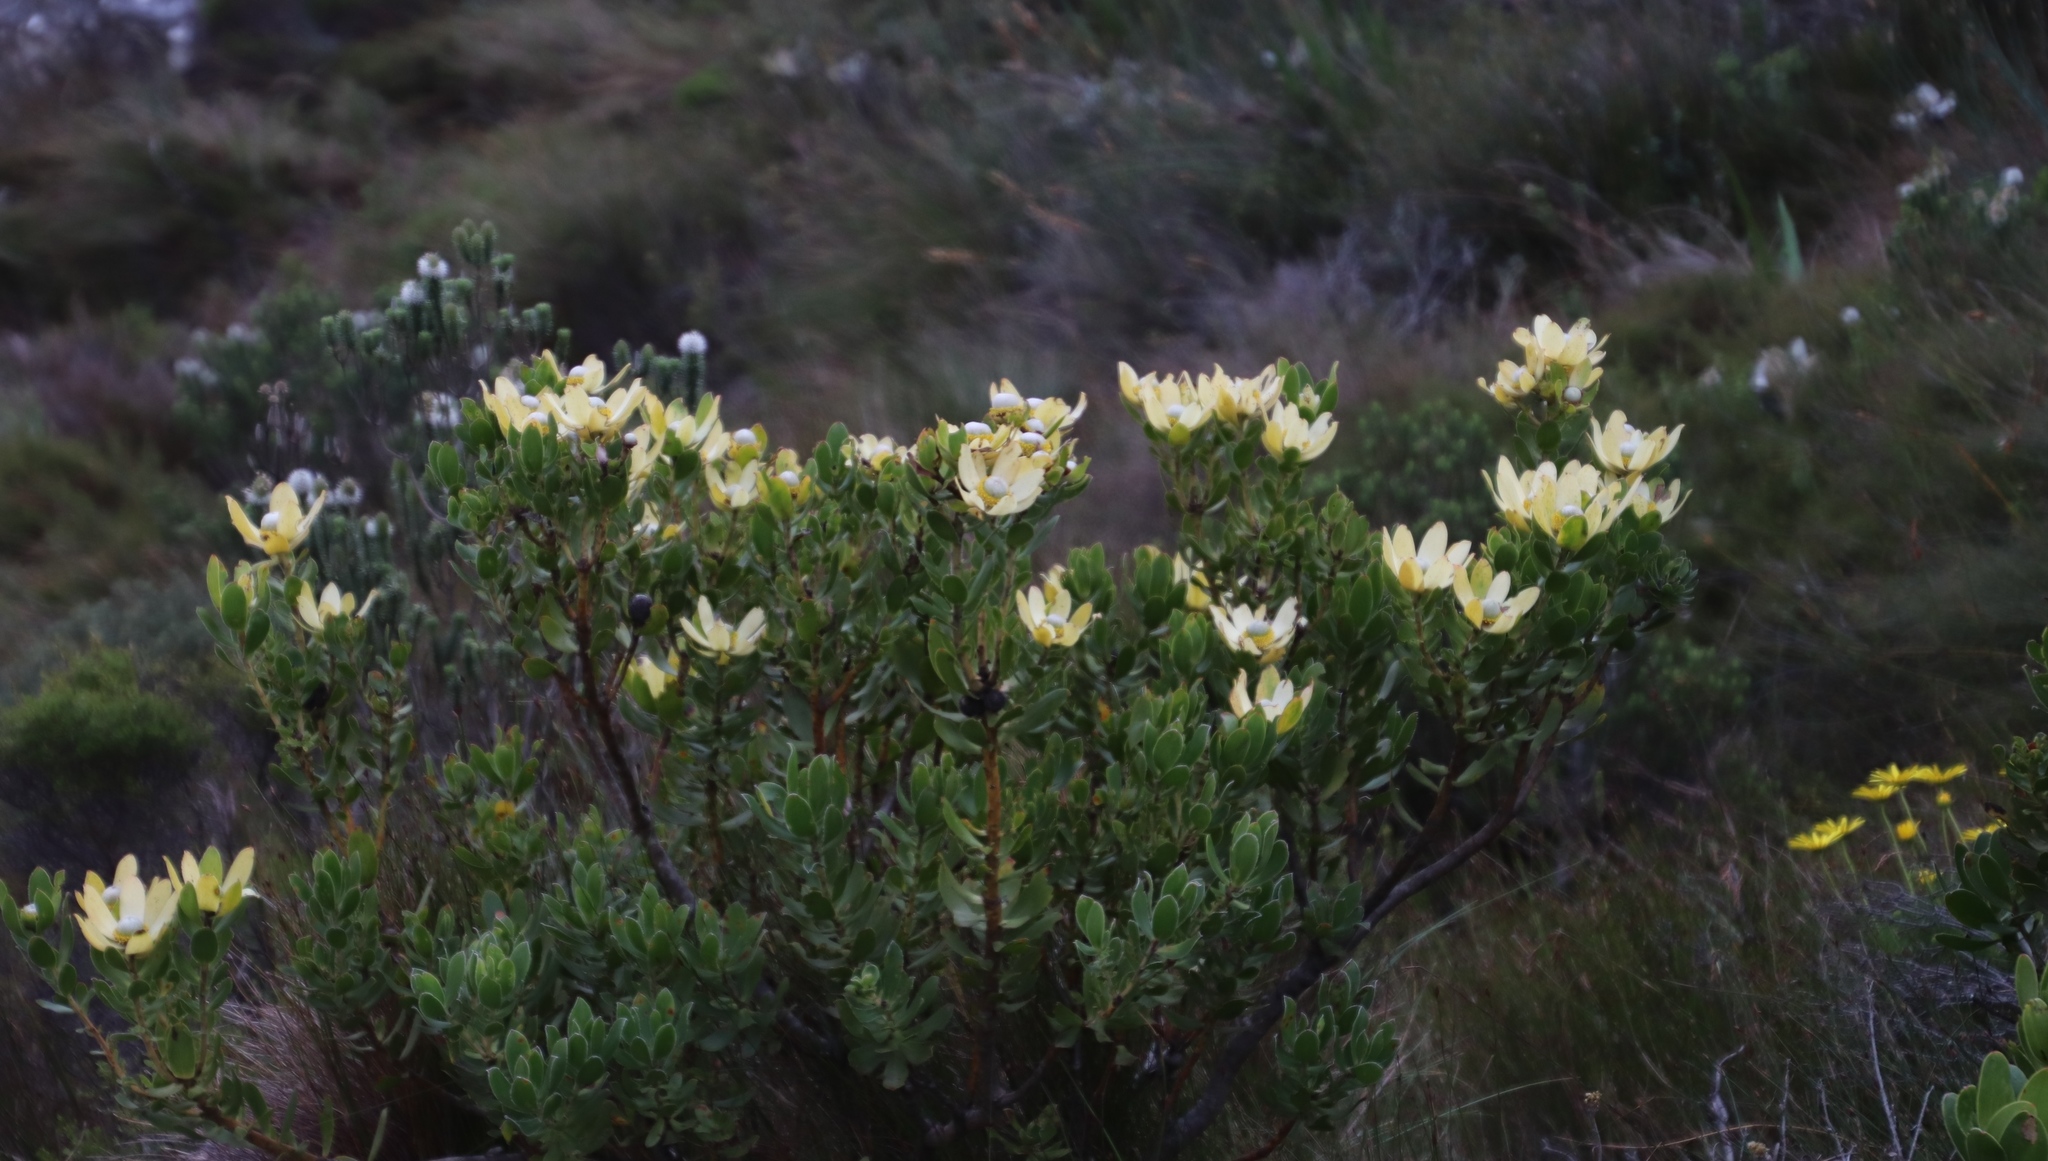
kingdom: Plantae
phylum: Tracheophyta
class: Magnoliopsida
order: Proteales
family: Proteaceae
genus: Leucadendron
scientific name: Leucadendron strobilinum
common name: Mountain rose
